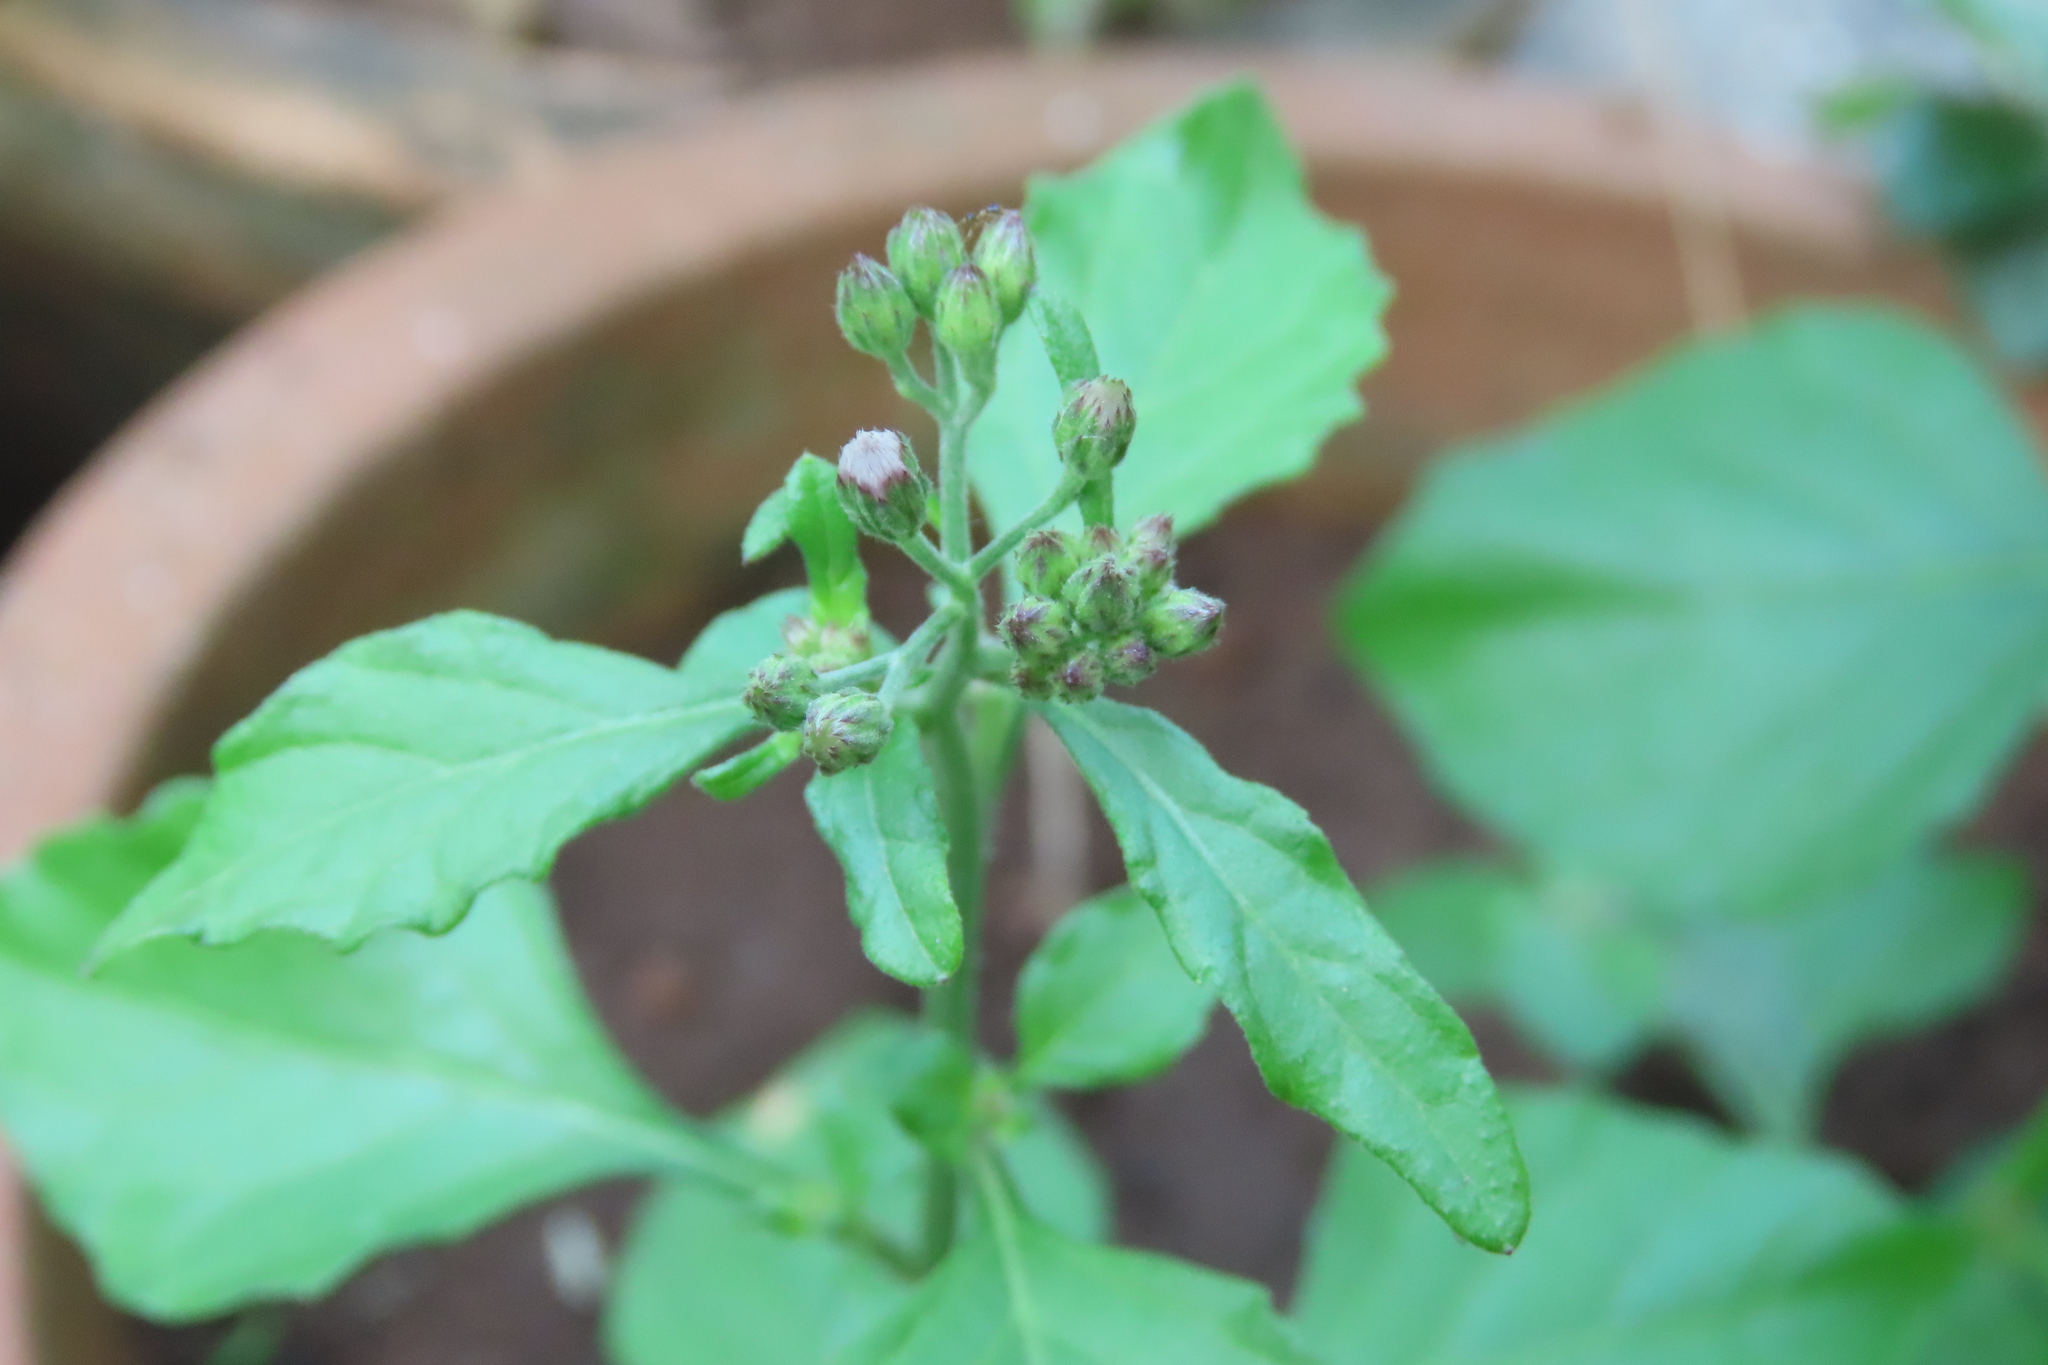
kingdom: Plantae
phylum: Tracheophyta
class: Magnoliopsida
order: Asterales
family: Asteraceae
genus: Cyanthillium
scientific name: Cyanthillium cinereum
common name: Little ironweed
